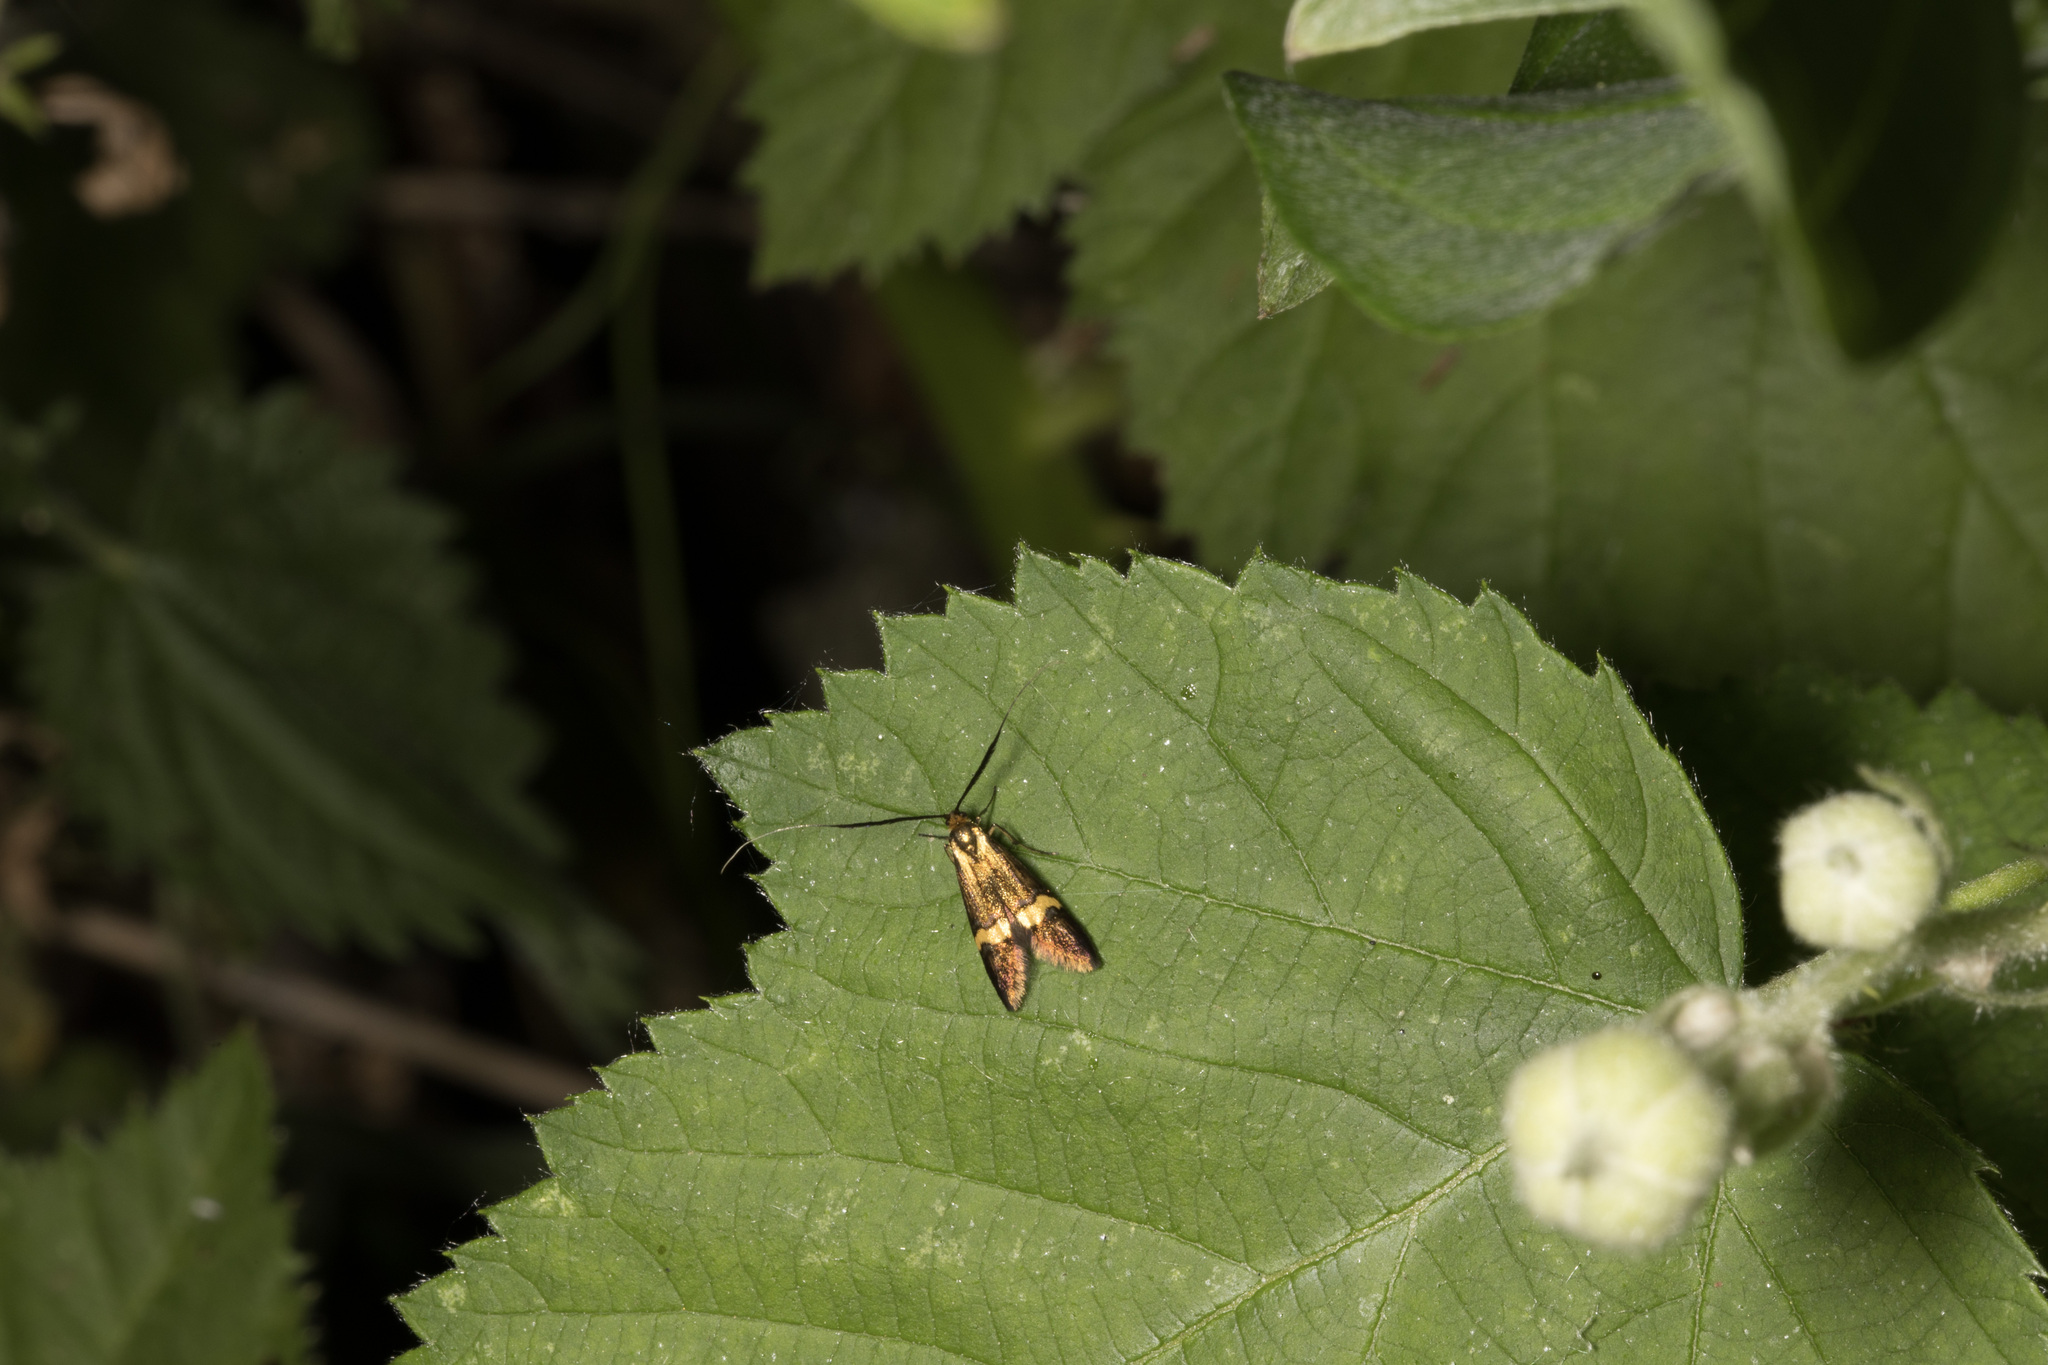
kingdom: Animalia
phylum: Arthropoda
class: Insecta
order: Lepidoptera
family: Adelidae
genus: Nemophora
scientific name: Nemophora
